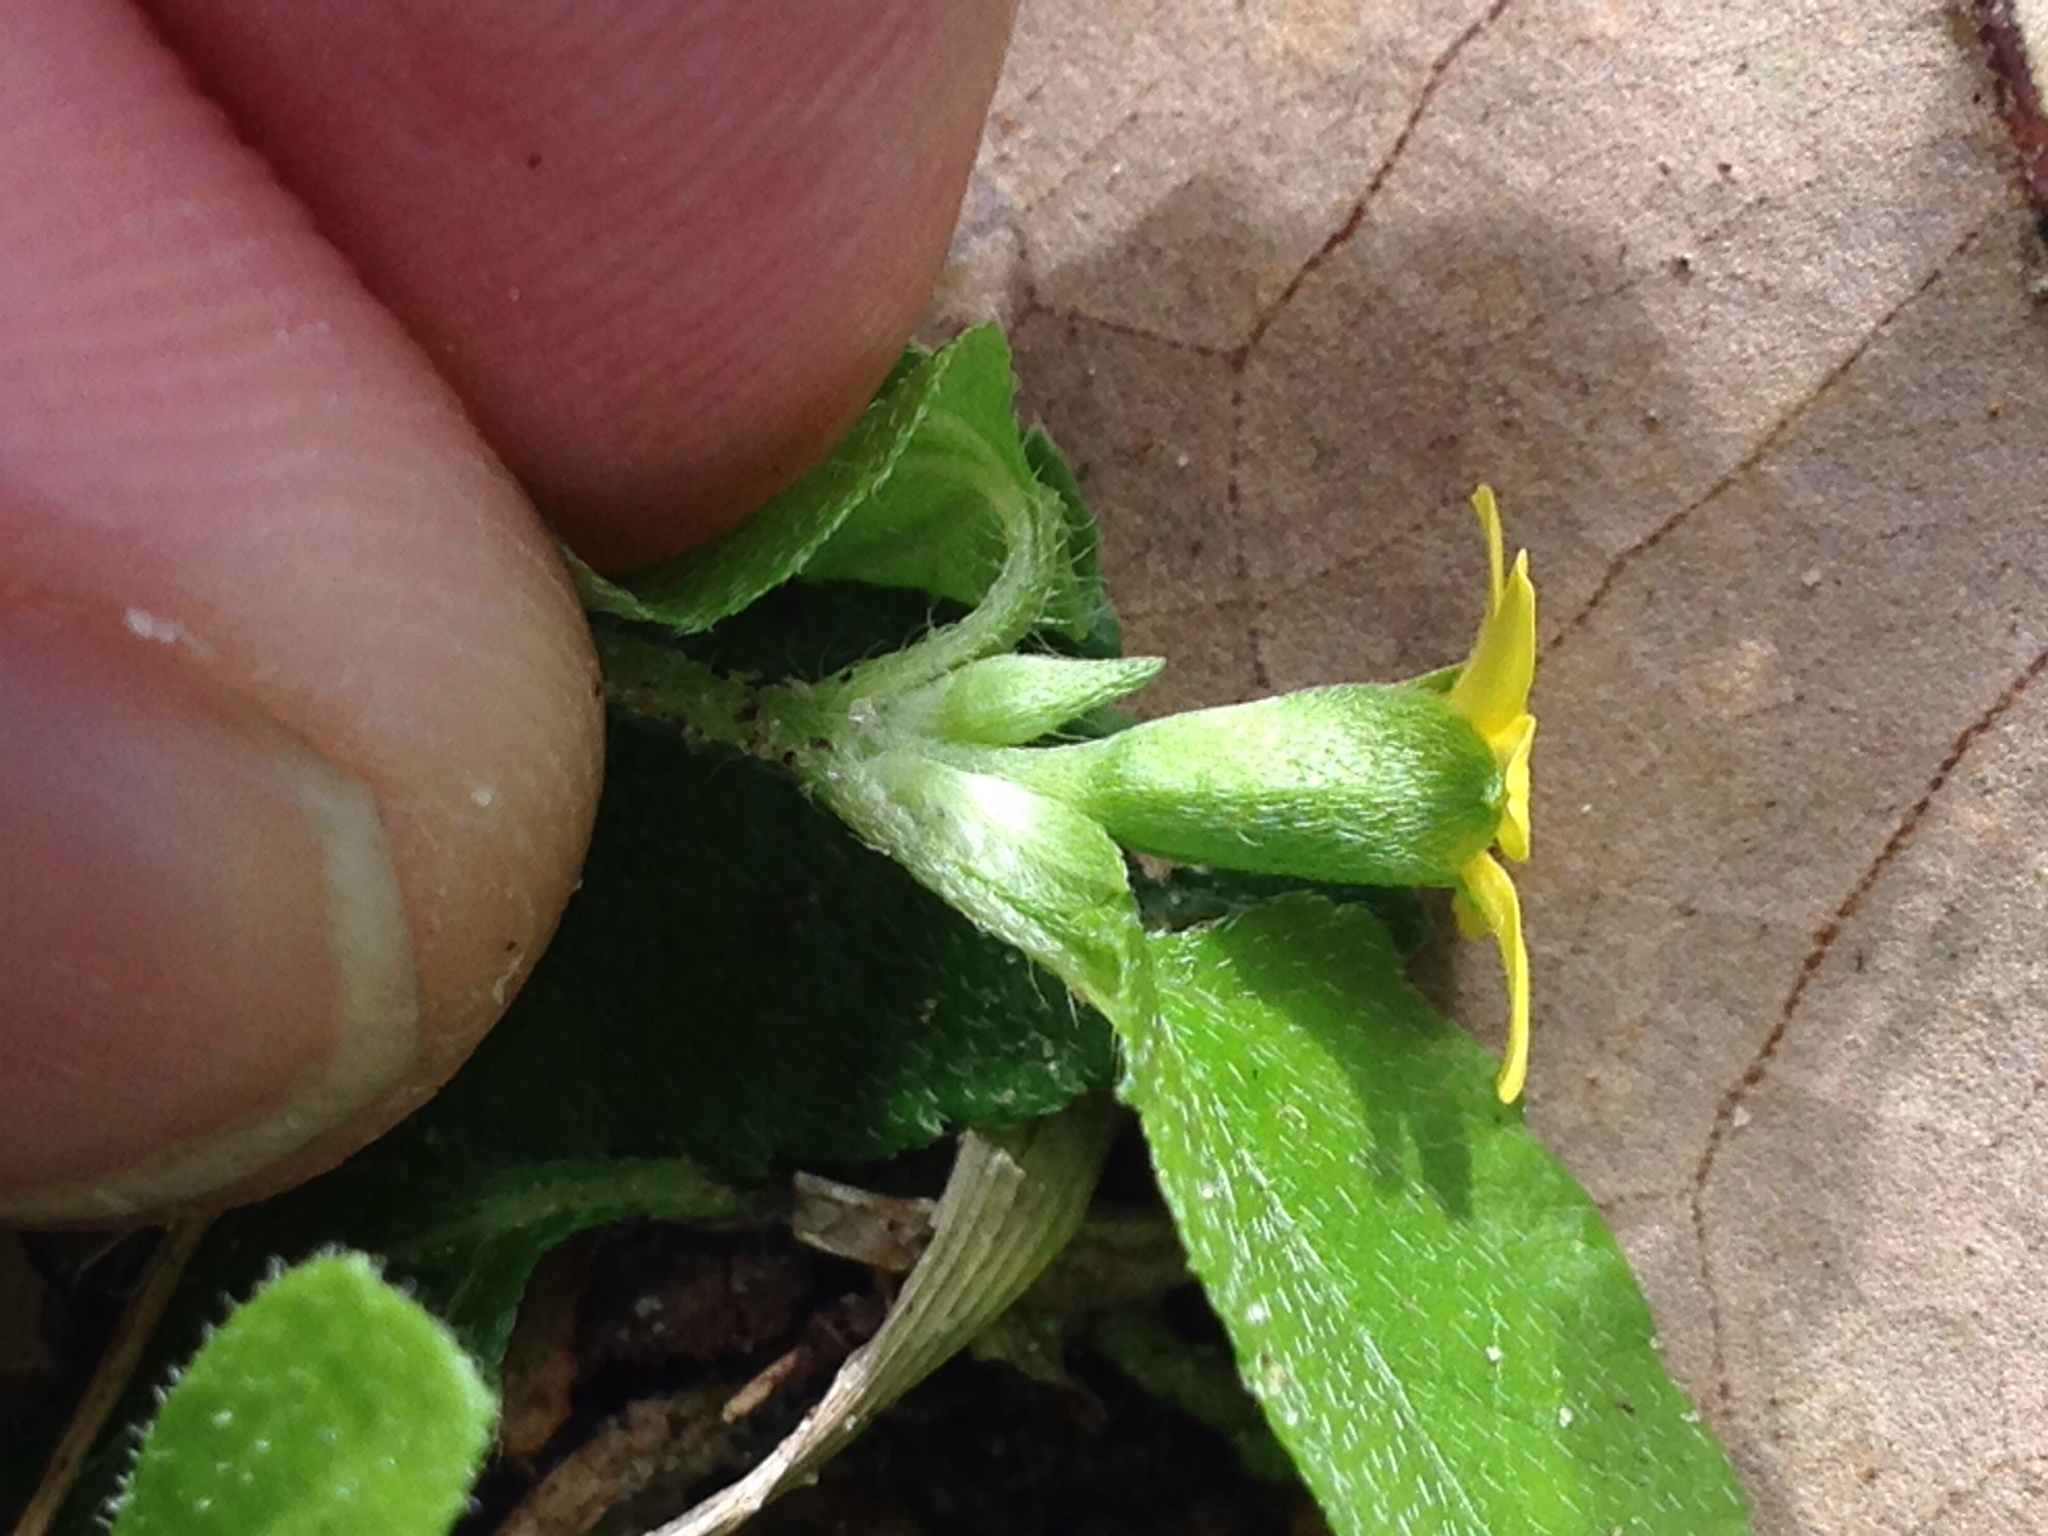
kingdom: Plantae
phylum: Tracheophyta
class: Magnoliopsida
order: Asterales
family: Asteraceae
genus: Calyptocarpus
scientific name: Calyptocarpus vialis
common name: Straggler daisy
